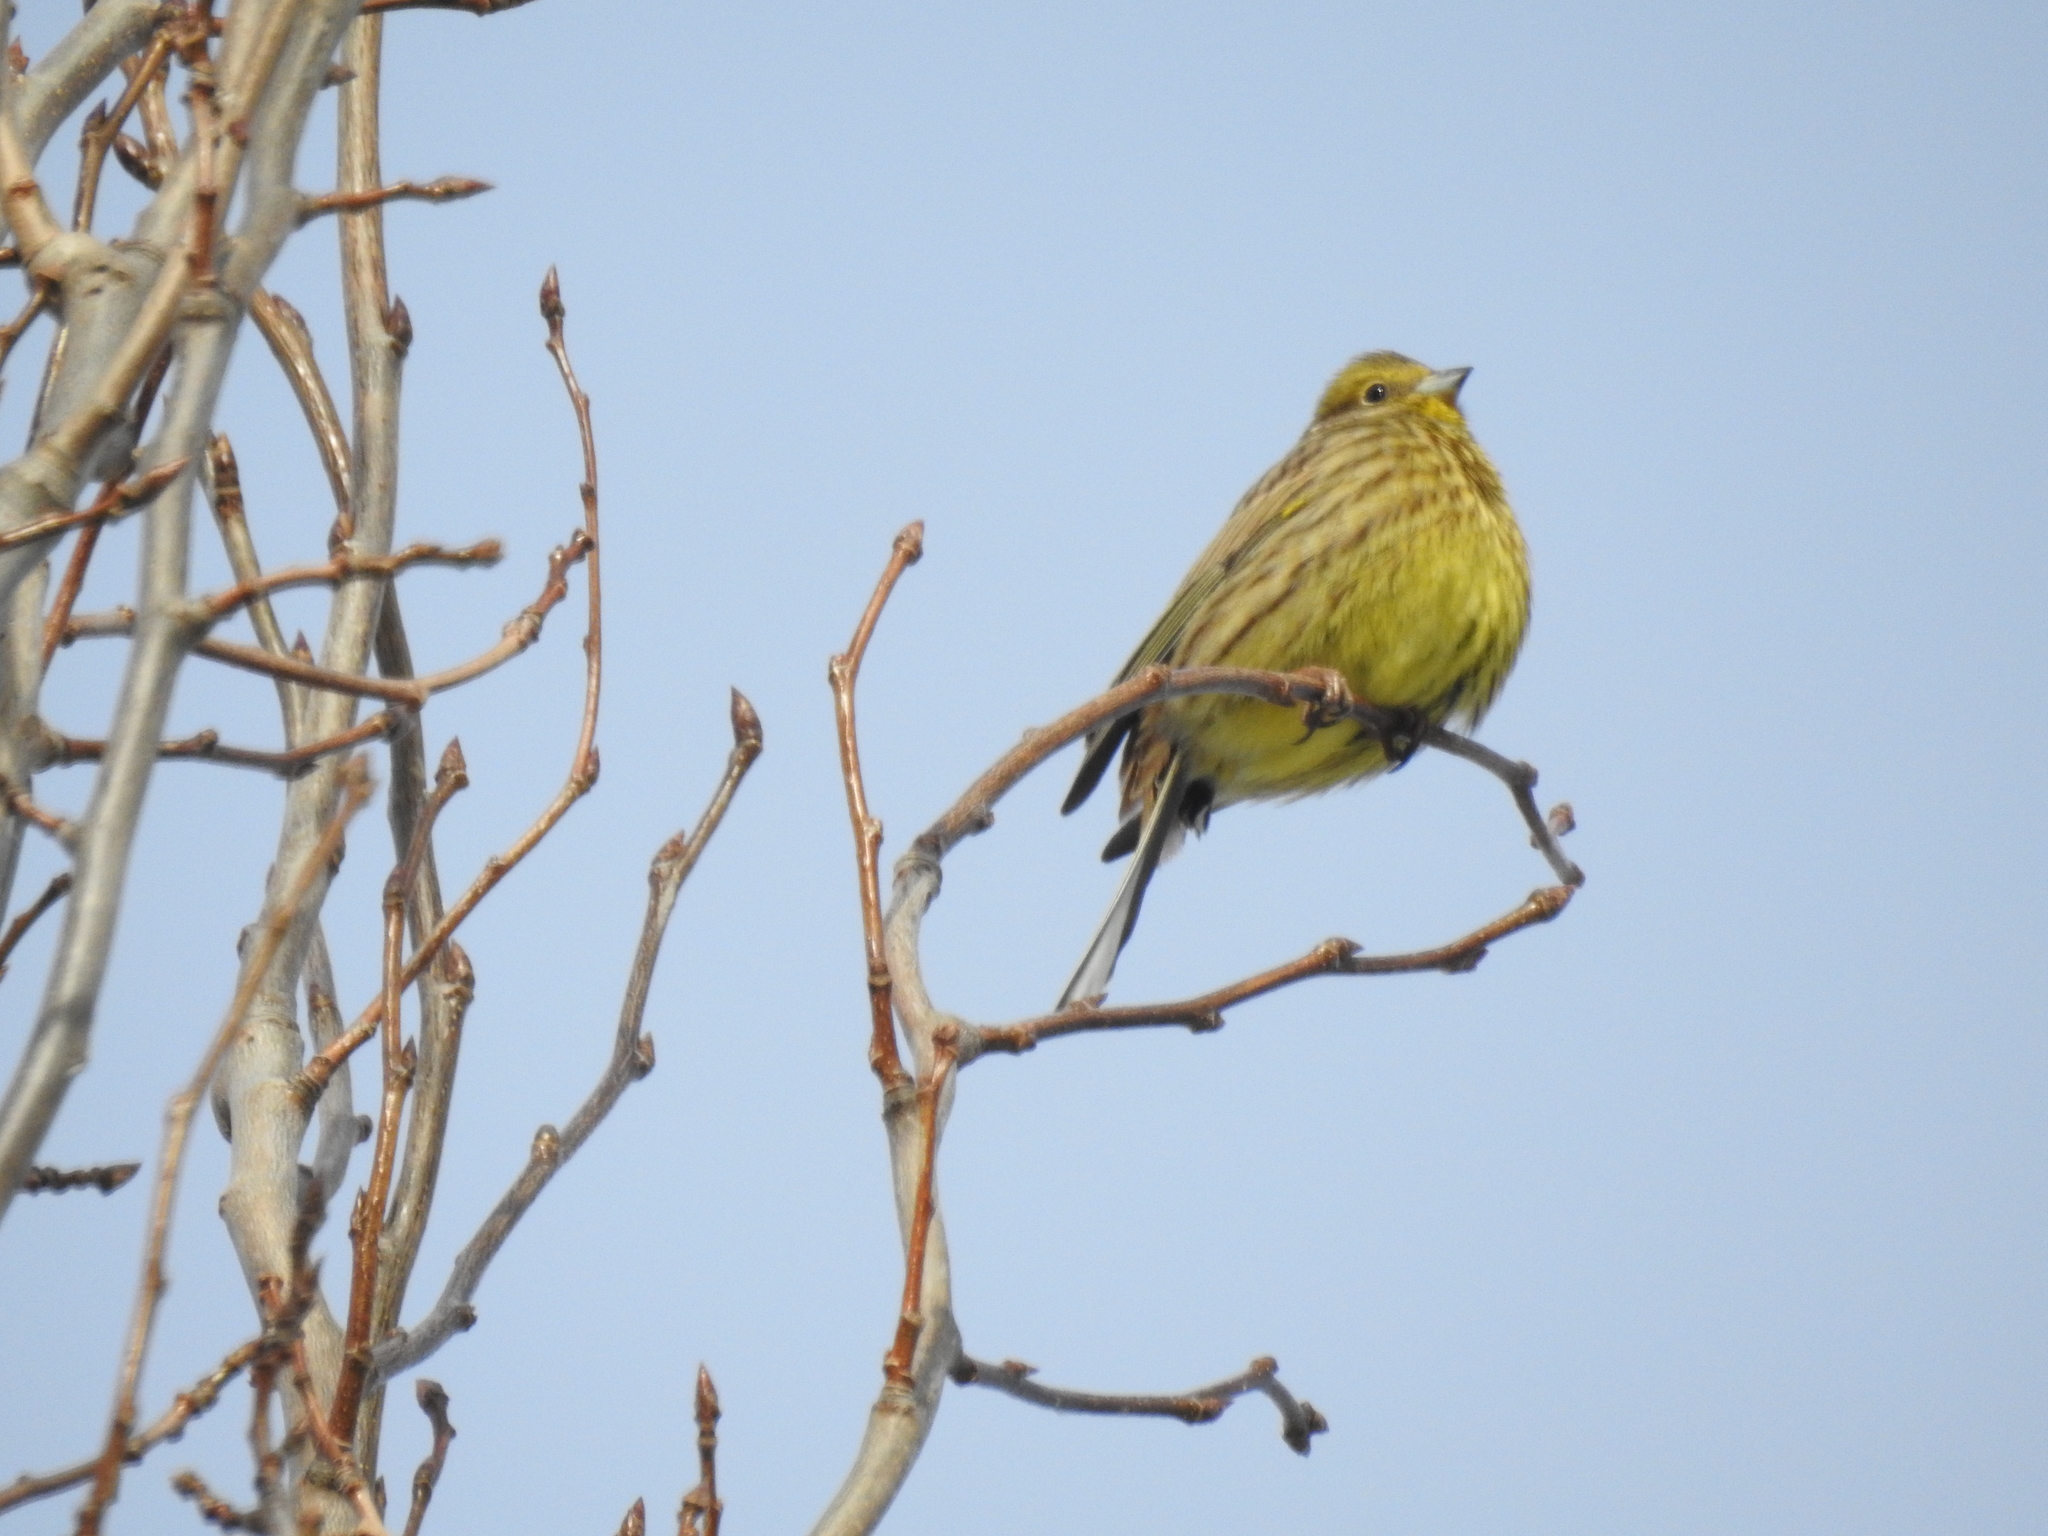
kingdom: Animalia
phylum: Chordata
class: Aves
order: Passeriformes
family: Emberizidae
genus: Emberiza
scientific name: Emberiza citrinella
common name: Yellowhammer
